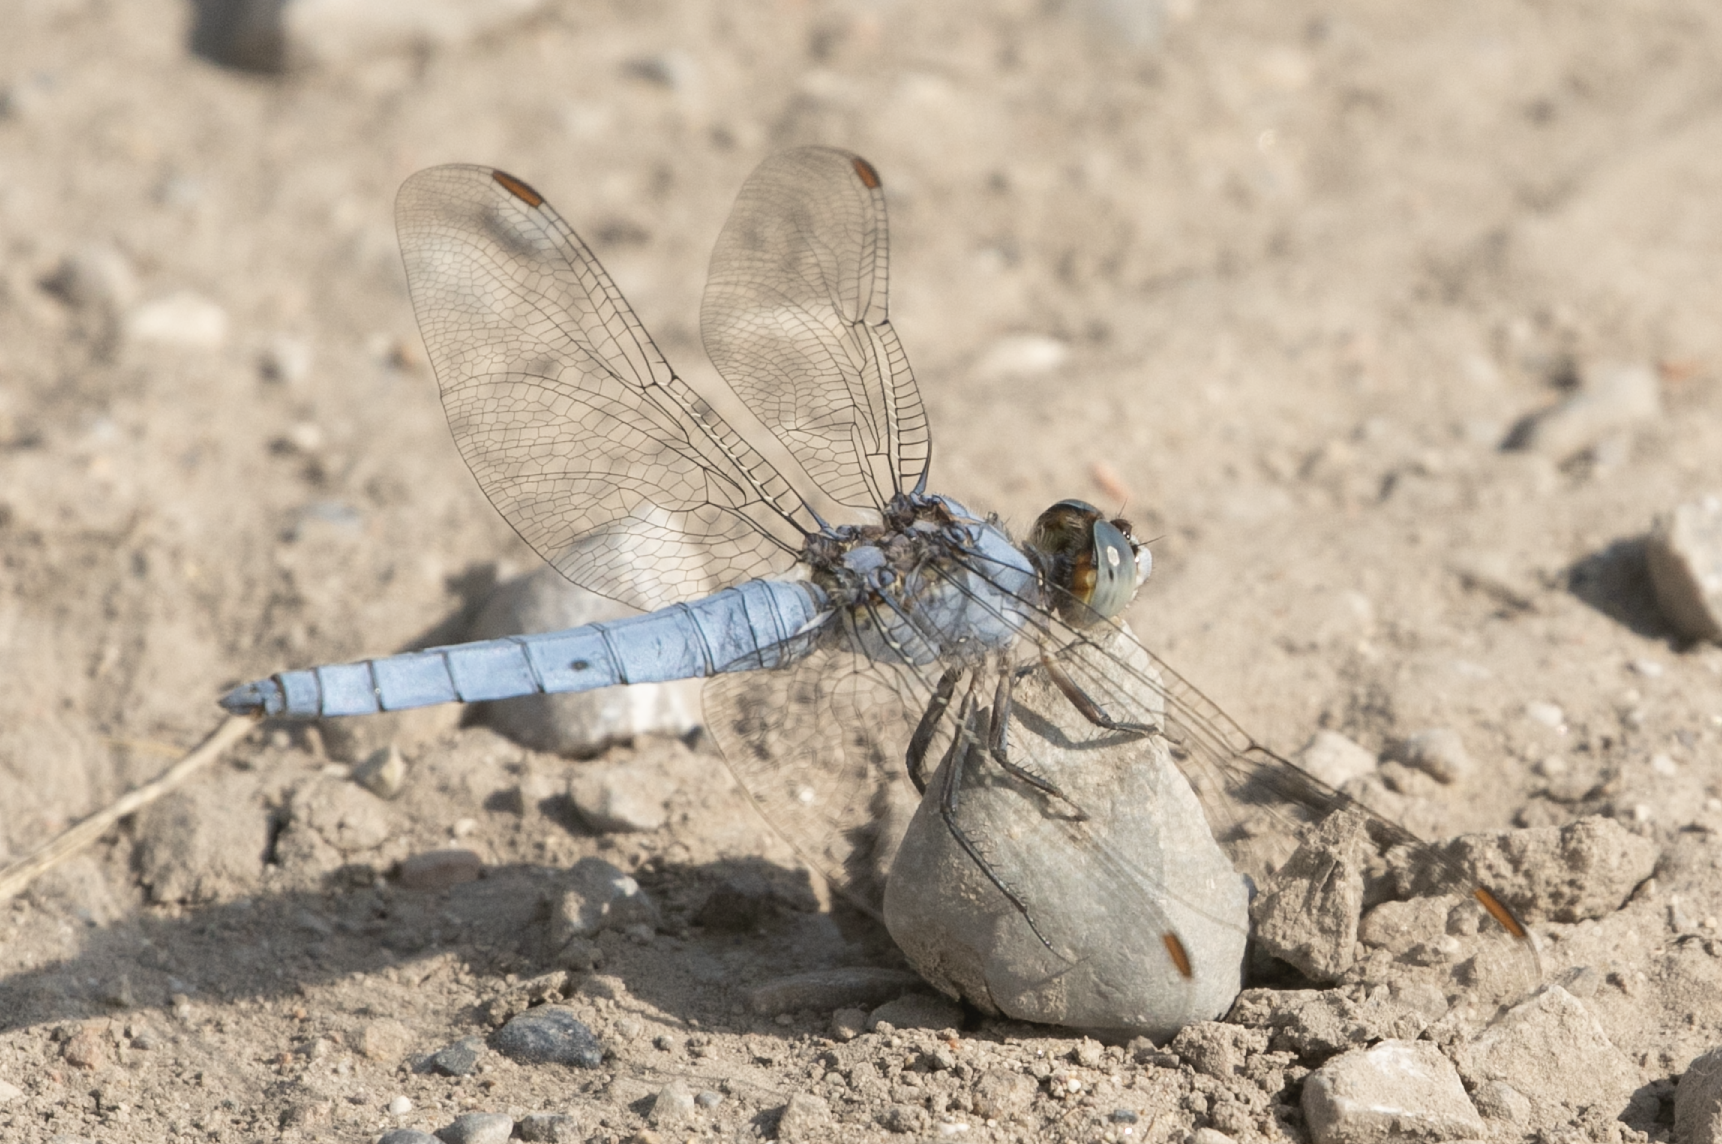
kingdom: Animalia
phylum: Arthropoda
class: Insecta
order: Odonata
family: Libellulidae
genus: Orthetrum
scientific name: Orthetrum brunneum
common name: Southern skimmer
